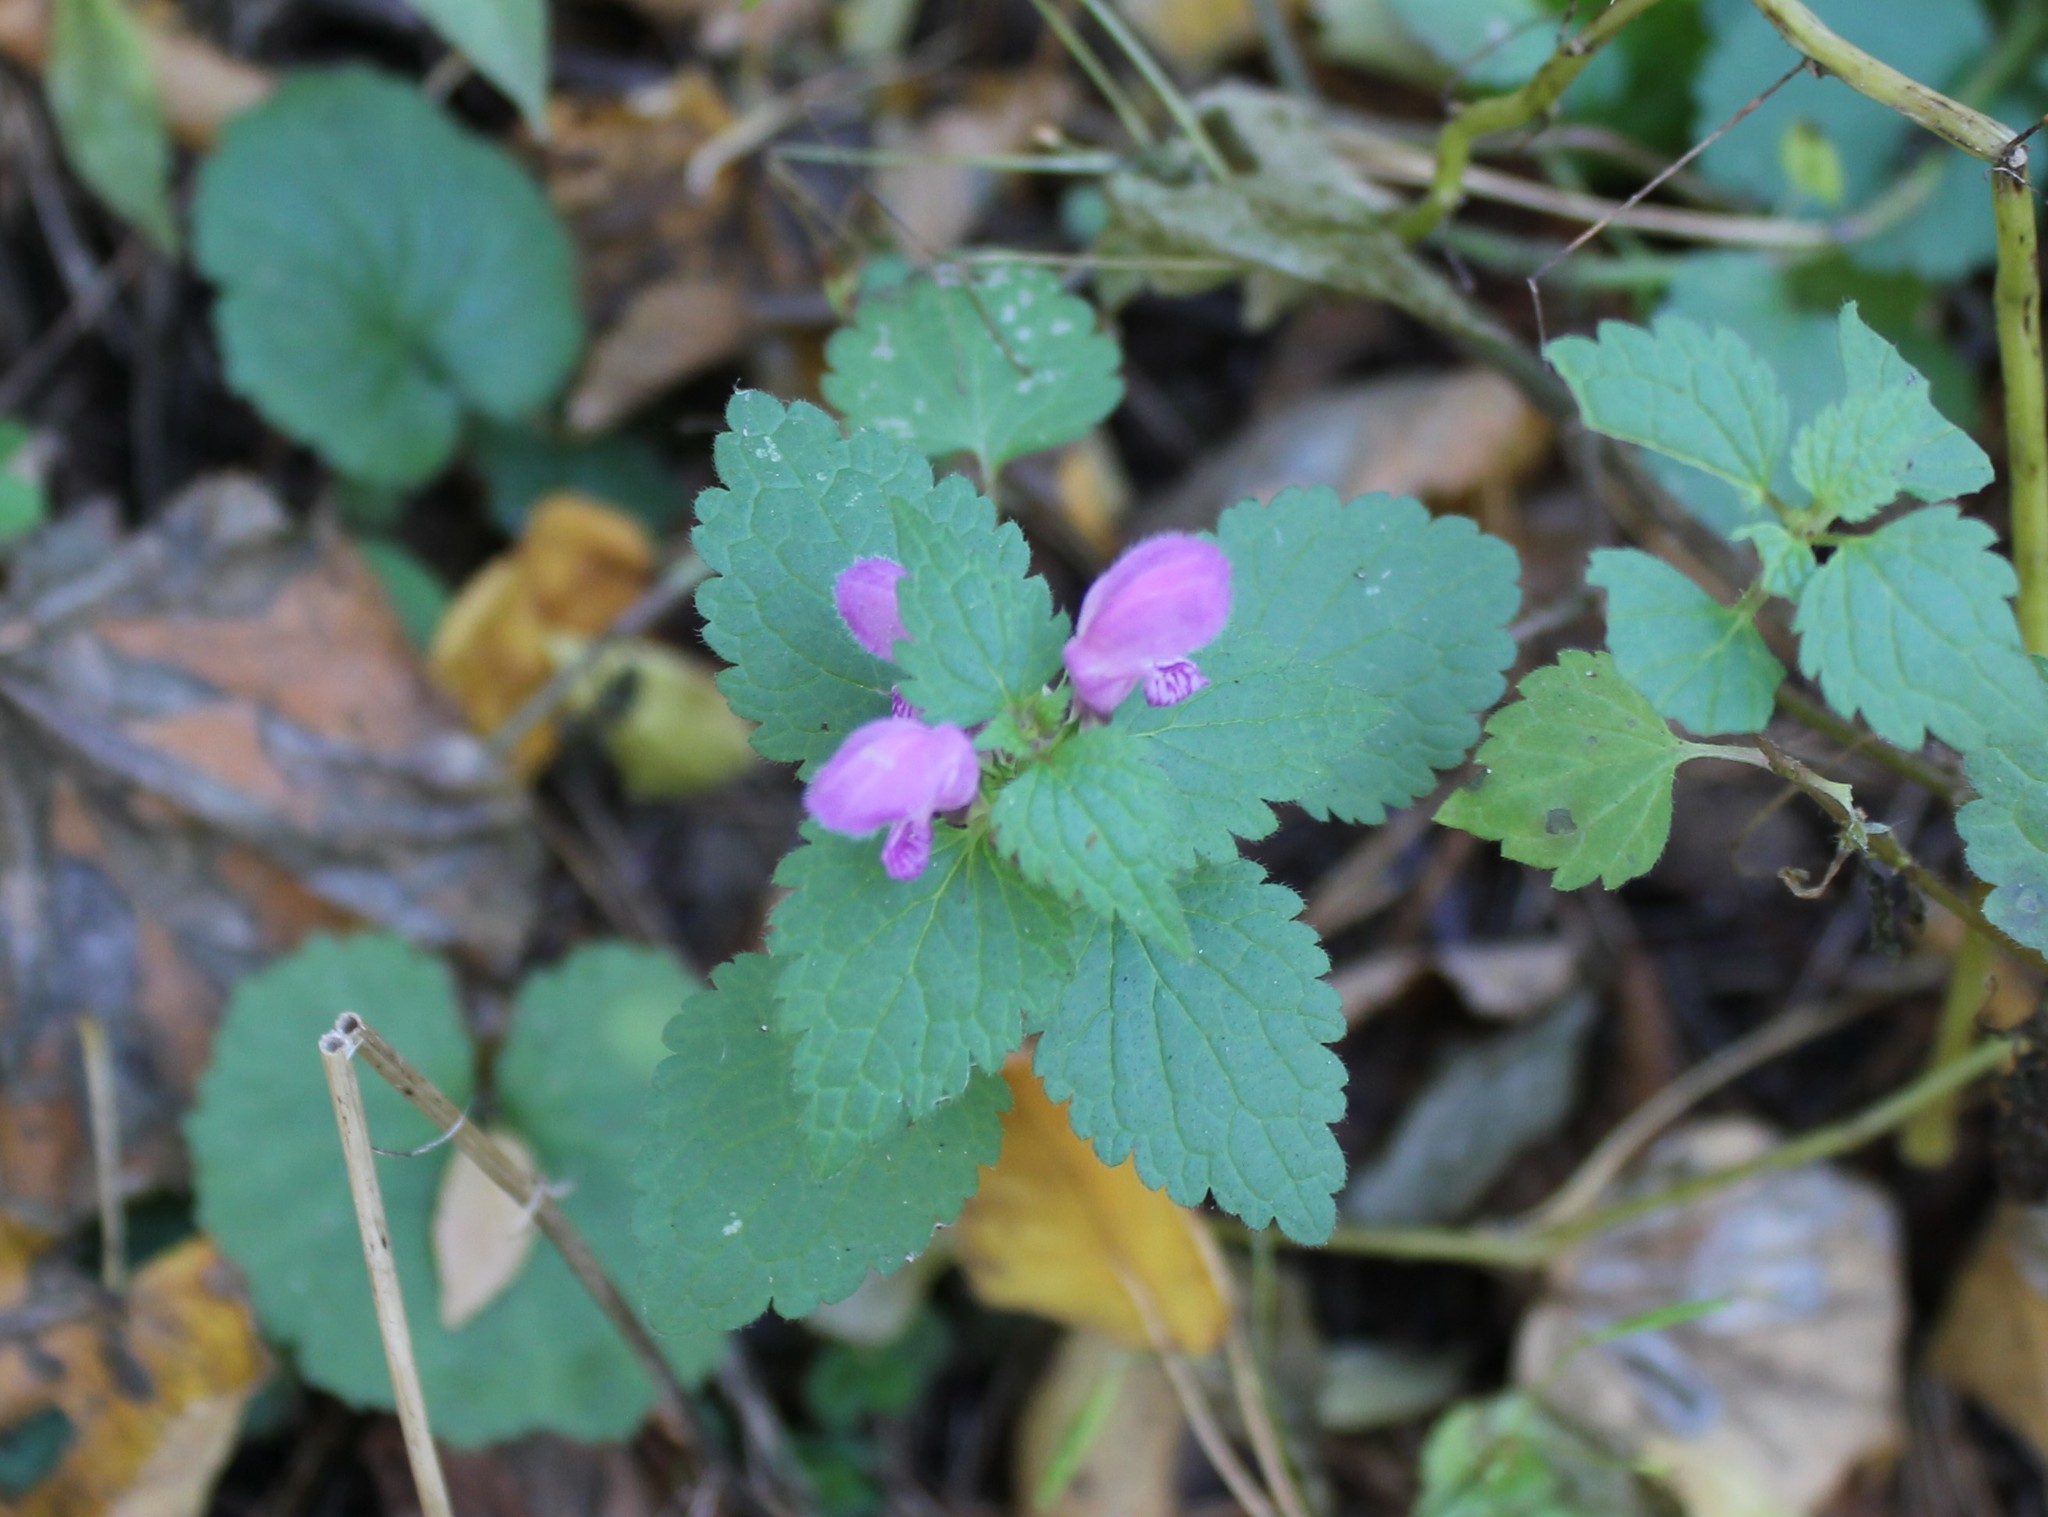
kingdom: Plantae
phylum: Tracheophyta
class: Magnoliopsida
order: Lamiales
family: Lamiaceae
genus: Lamium
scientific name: Lamium maculatum
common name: Spotted dead-nettle
